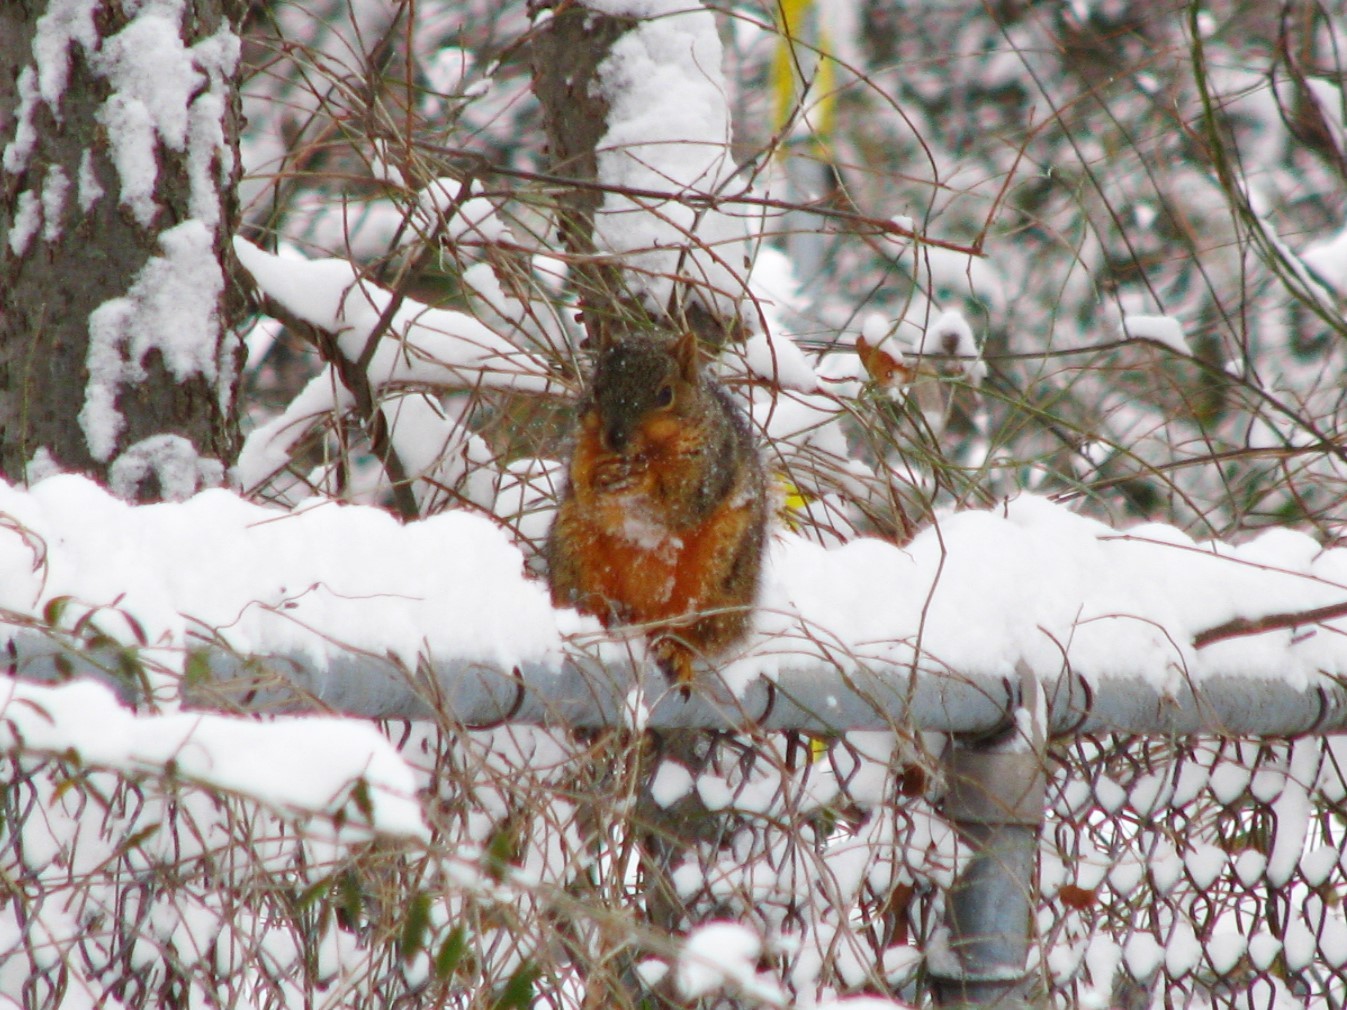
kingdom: Animalia
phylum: Chordata
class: Mammalia
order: Rodentia
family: Sciuridae
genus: Sciurus
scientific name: Sciurus niger
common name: Fox squirrel
